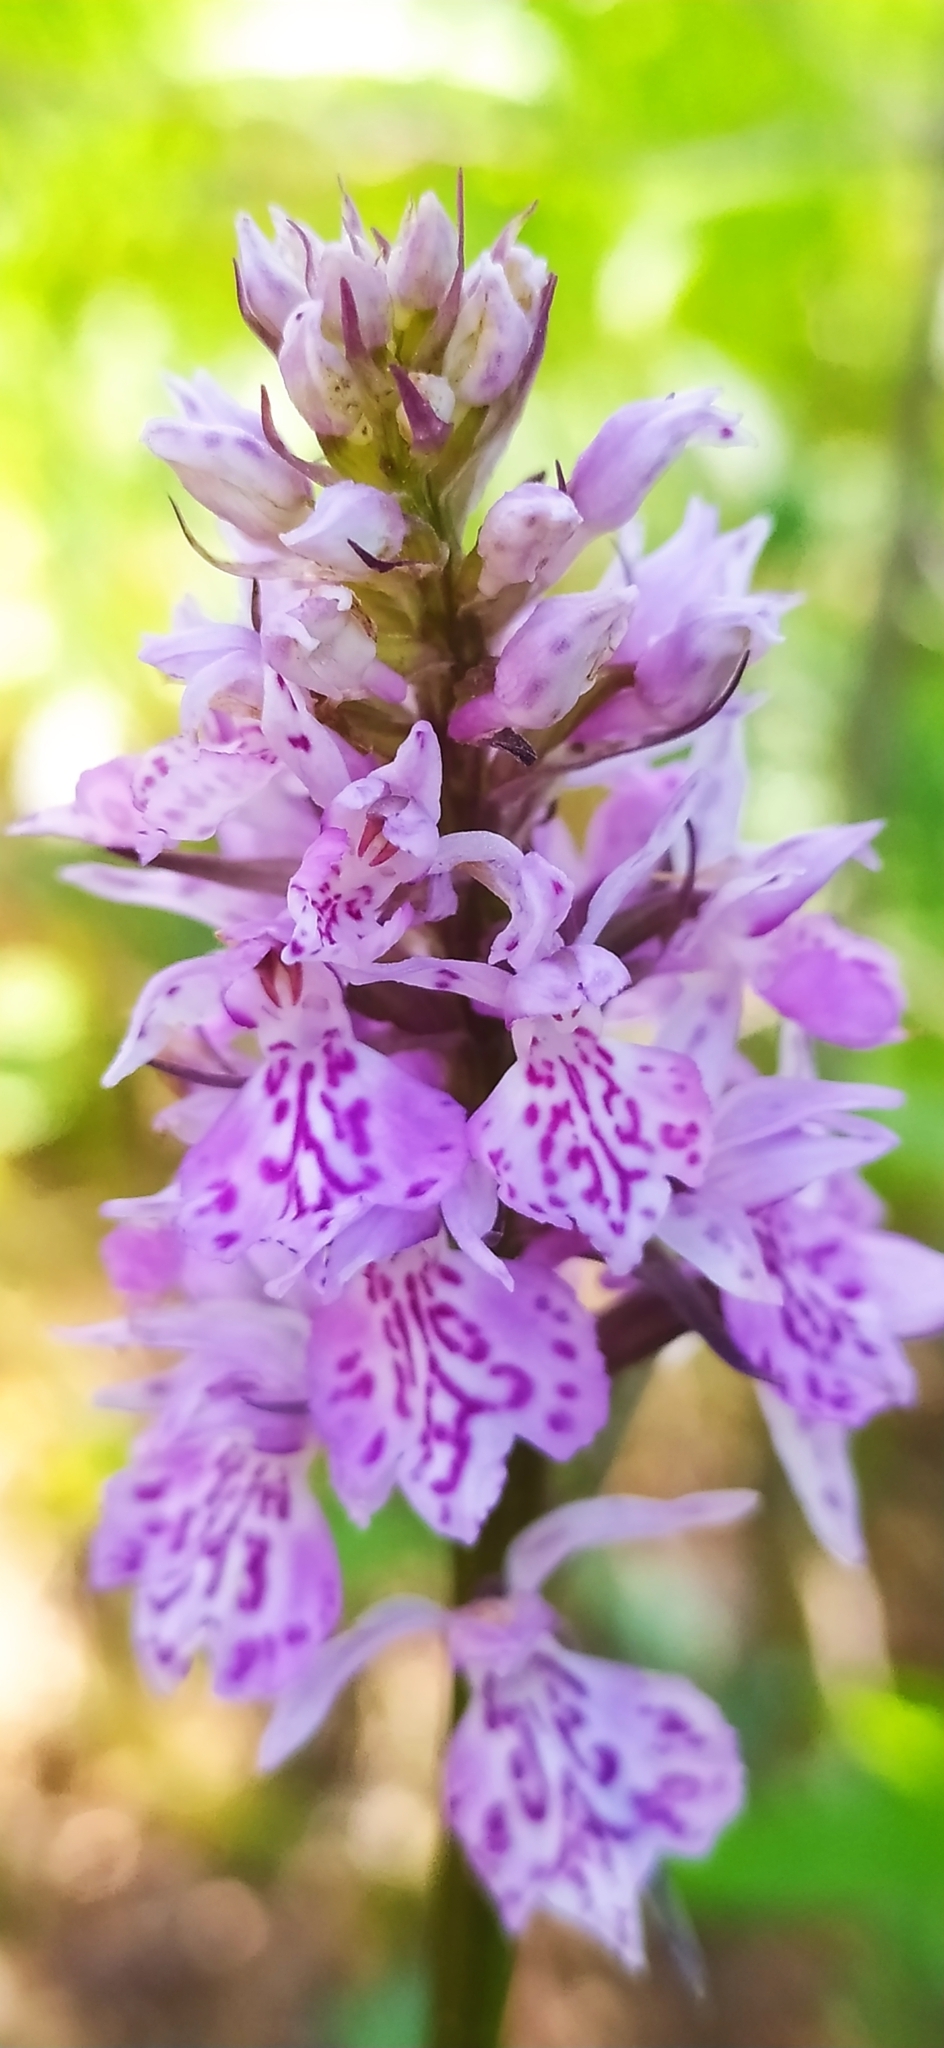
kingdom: Plantae
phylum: Tracheophyta
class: Liliopsida
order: Asparagales
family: Orchidaceae
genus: Dactylorhiza
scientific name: Dactylorhiza maculata
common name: Heath spotted-orchid
